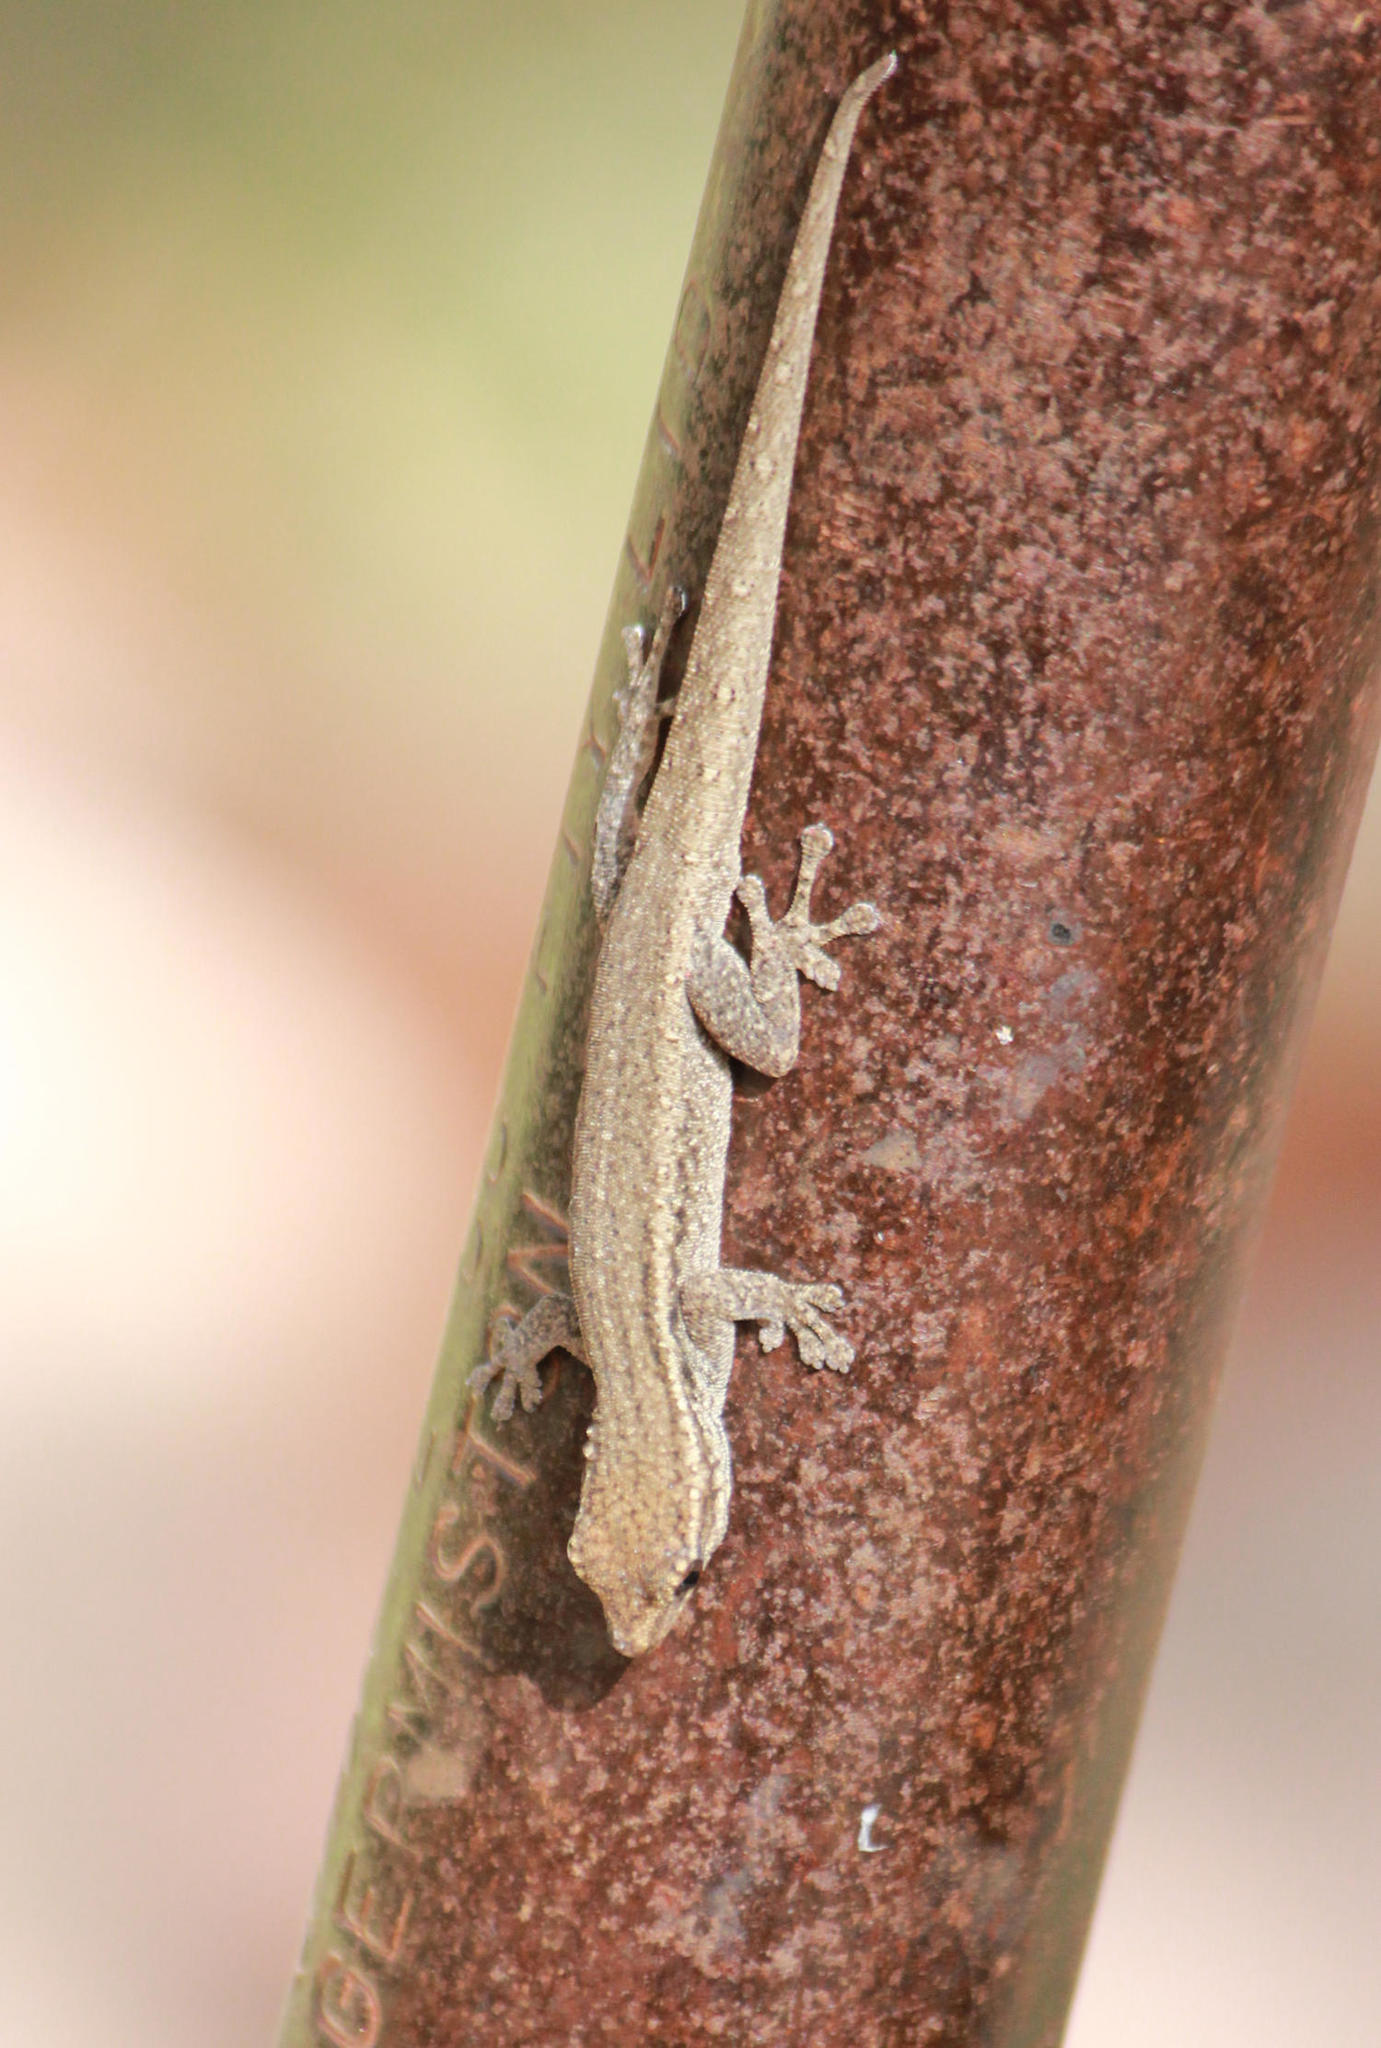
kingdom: Animalia
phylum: Chordata
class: Squamata
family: Gekkonidae
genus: Lygodactylus
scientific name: Lygodactylus capensis
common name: Cape dwarf gecko
